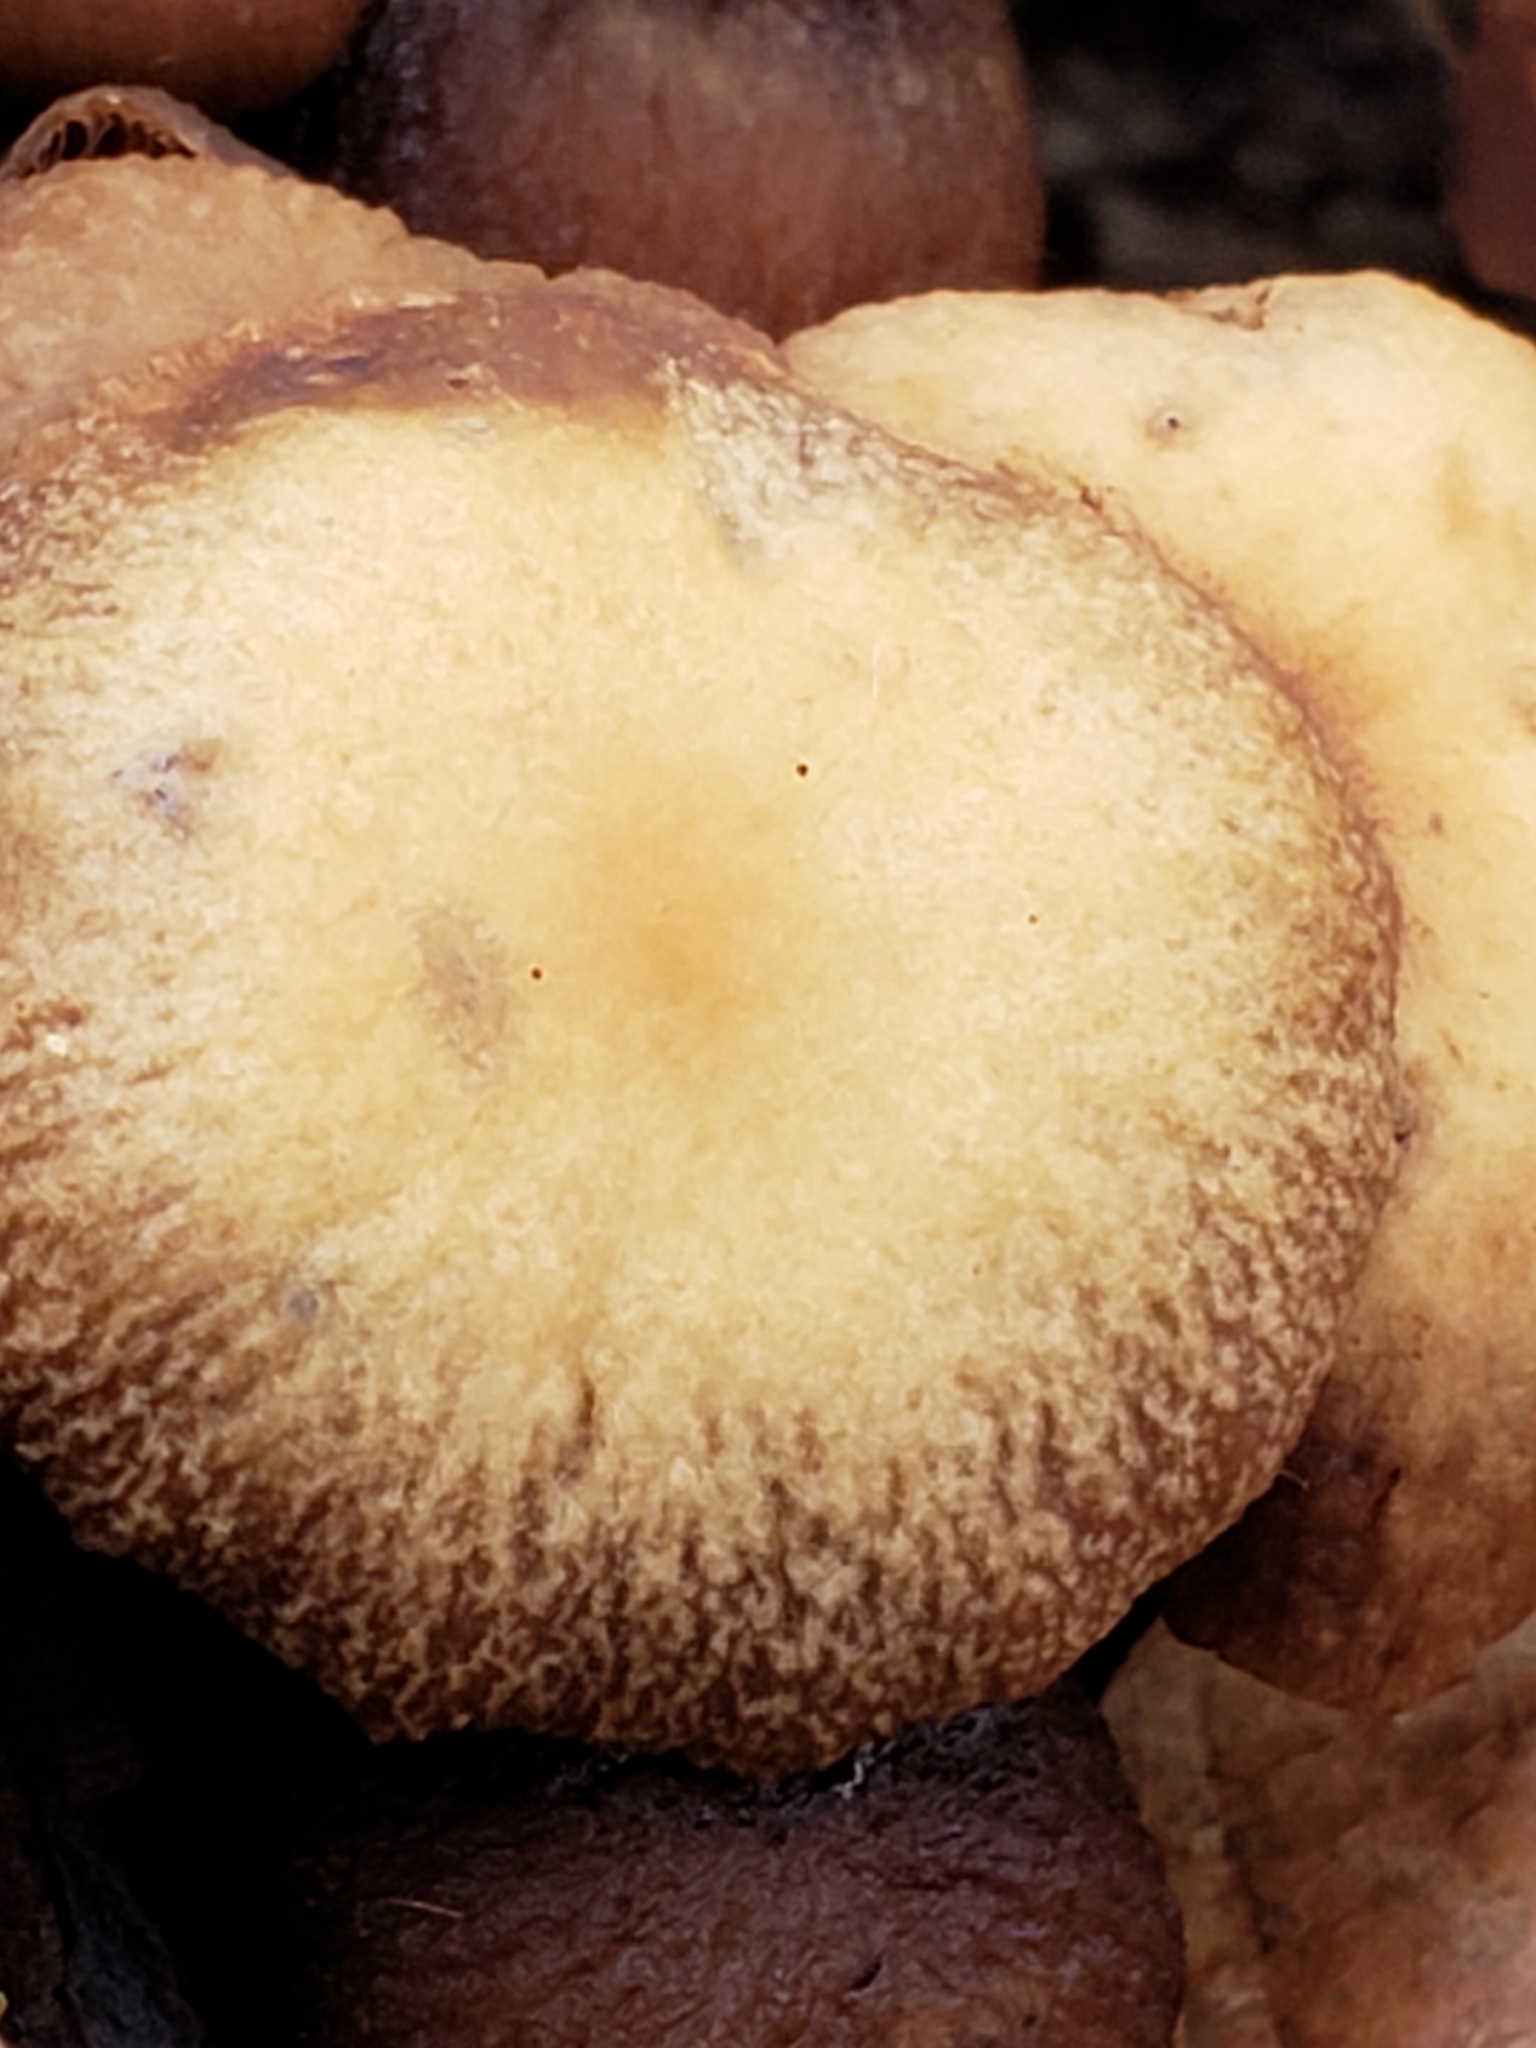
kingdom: Fungi
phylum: Basidiomycota
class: Agaricomycetes
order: Agaricales
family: Psathyrellaceae
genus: Typhrasa
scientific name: Typhrasa gossypina
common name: Wrinkled psathyrella
